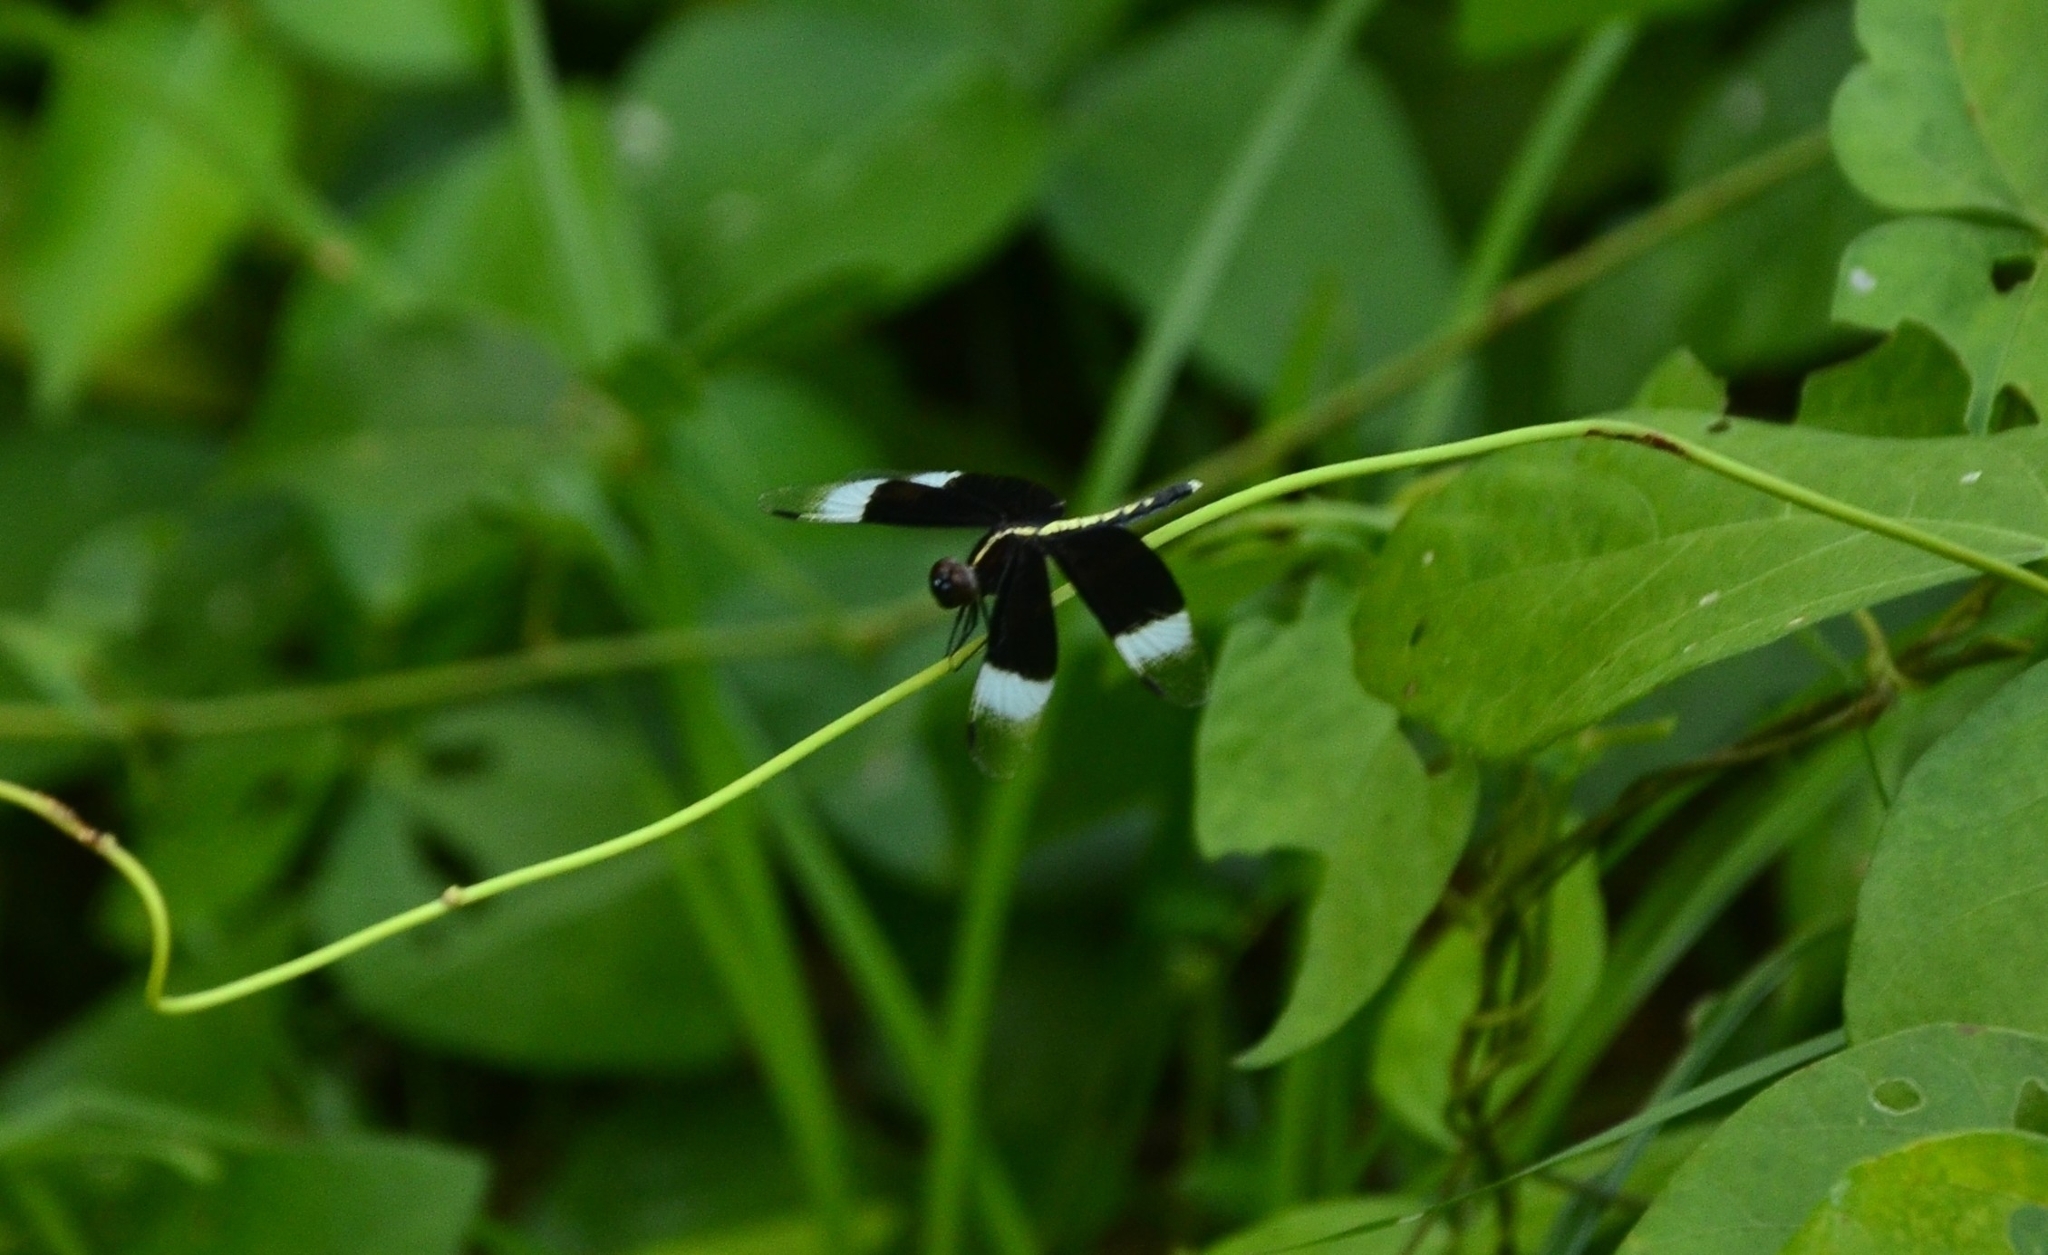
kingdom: Animalia
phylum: Arthropoda
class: Insecta
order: Odonata
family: Libellulidae
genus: Neurothemis
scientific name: Neurothemis tullia
